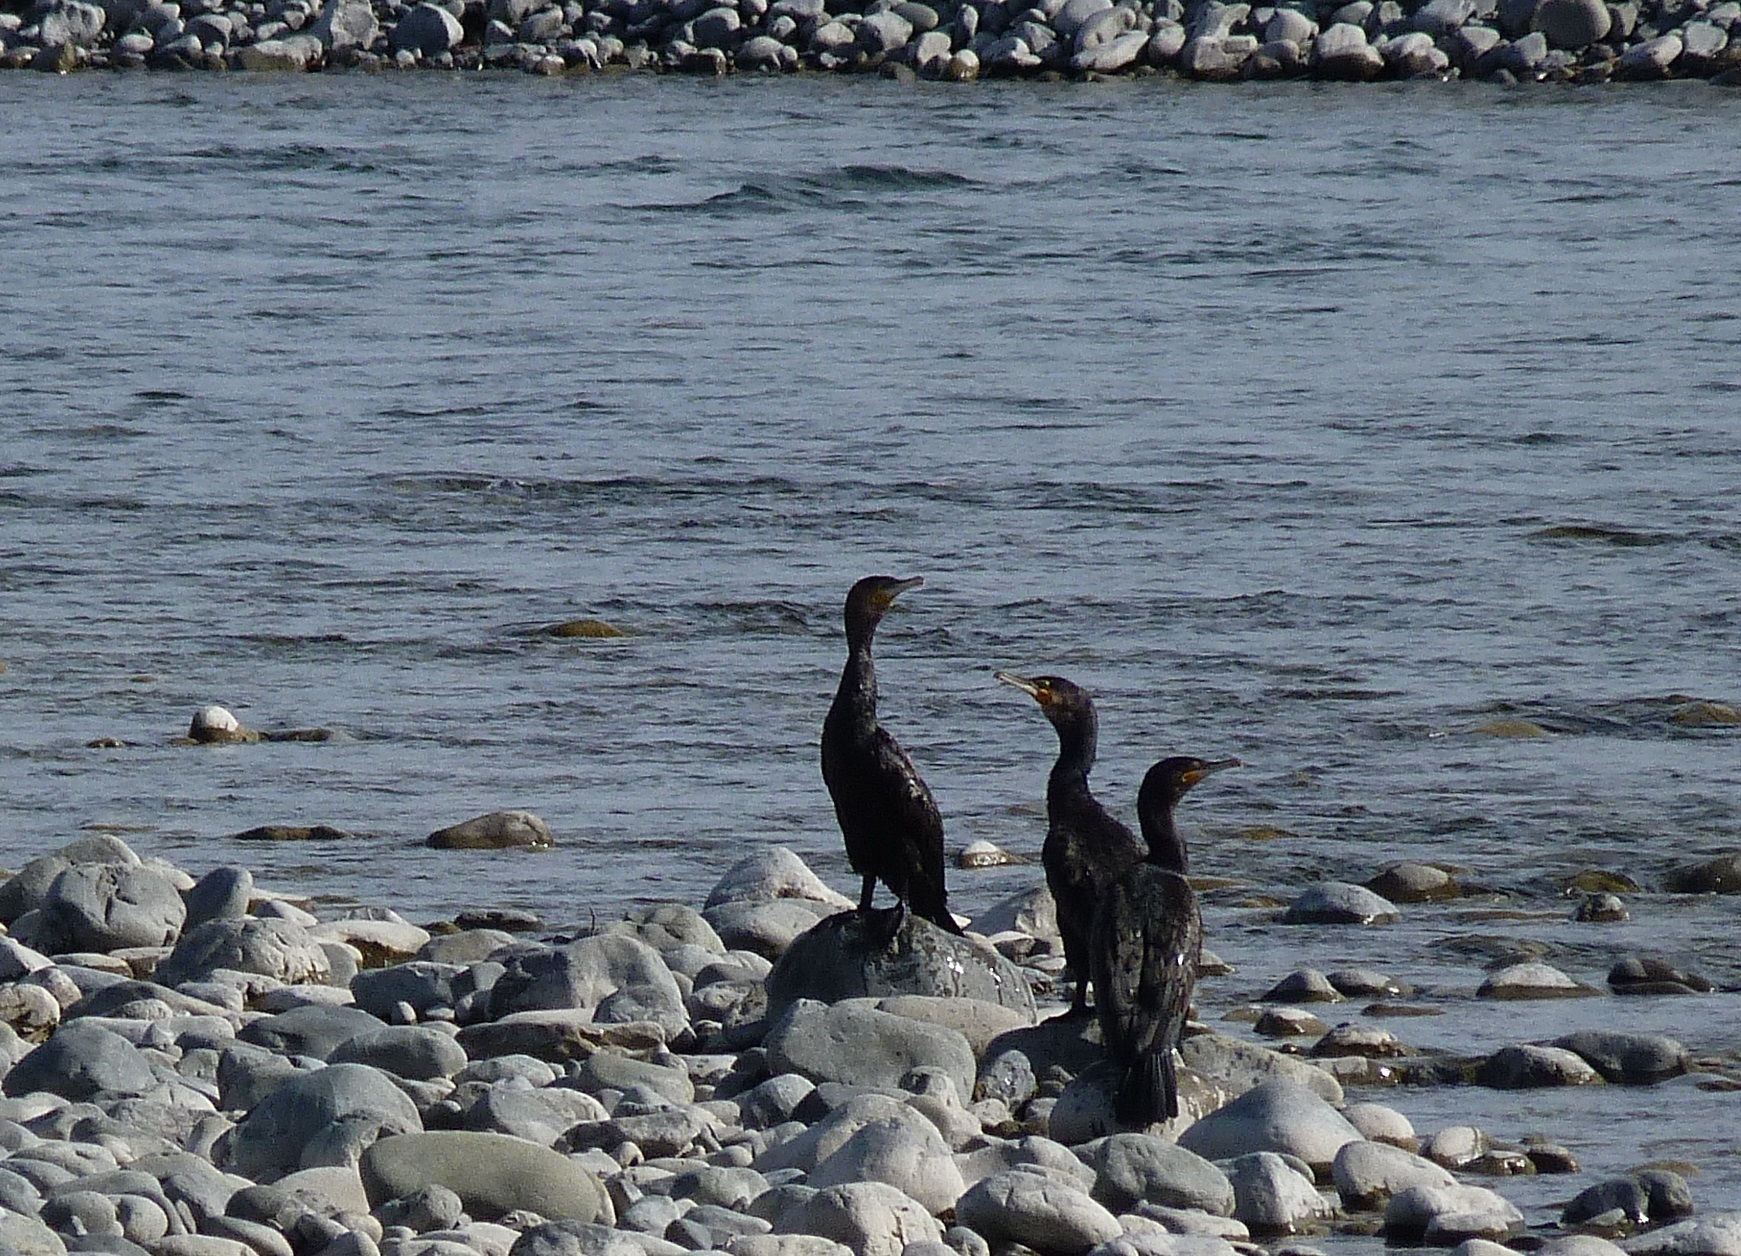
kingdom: Animalia
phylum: Chordata
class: Aves
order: Suliformes
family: Phalacrocoracidae
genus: Phalacrocorax
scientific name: Phalacrocorax carbo
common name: Great cormorant
